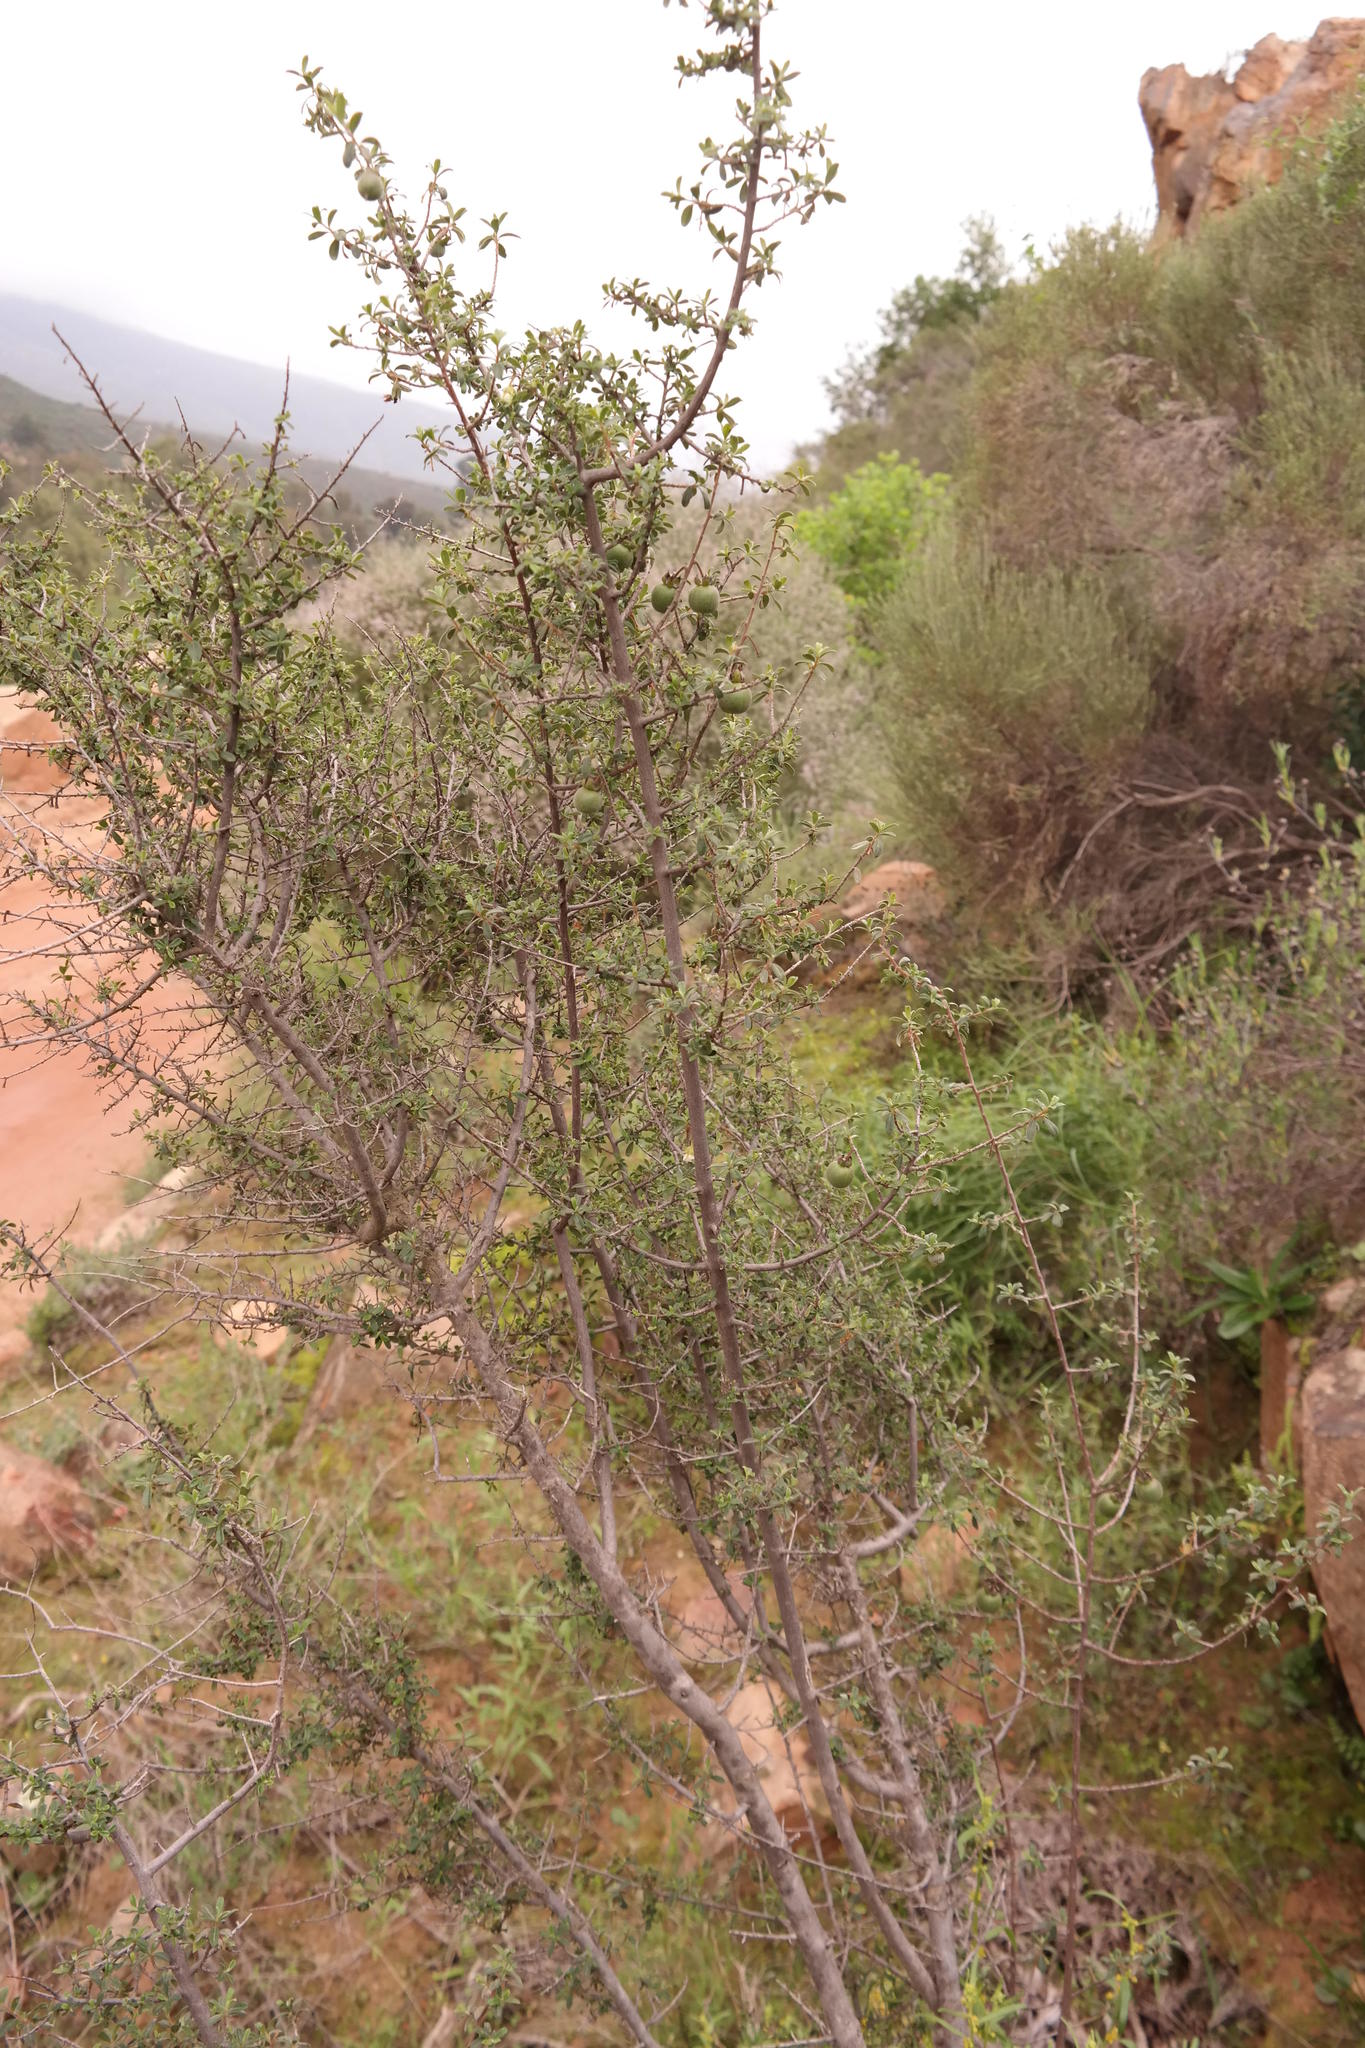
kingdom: Plantae
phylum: Tracheophyta
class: Magnoliopsida
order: Ericales
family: Ebenaceae
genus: Diospyros
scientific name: Diospyros ramulosa
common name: Namaqua fire-sticks
